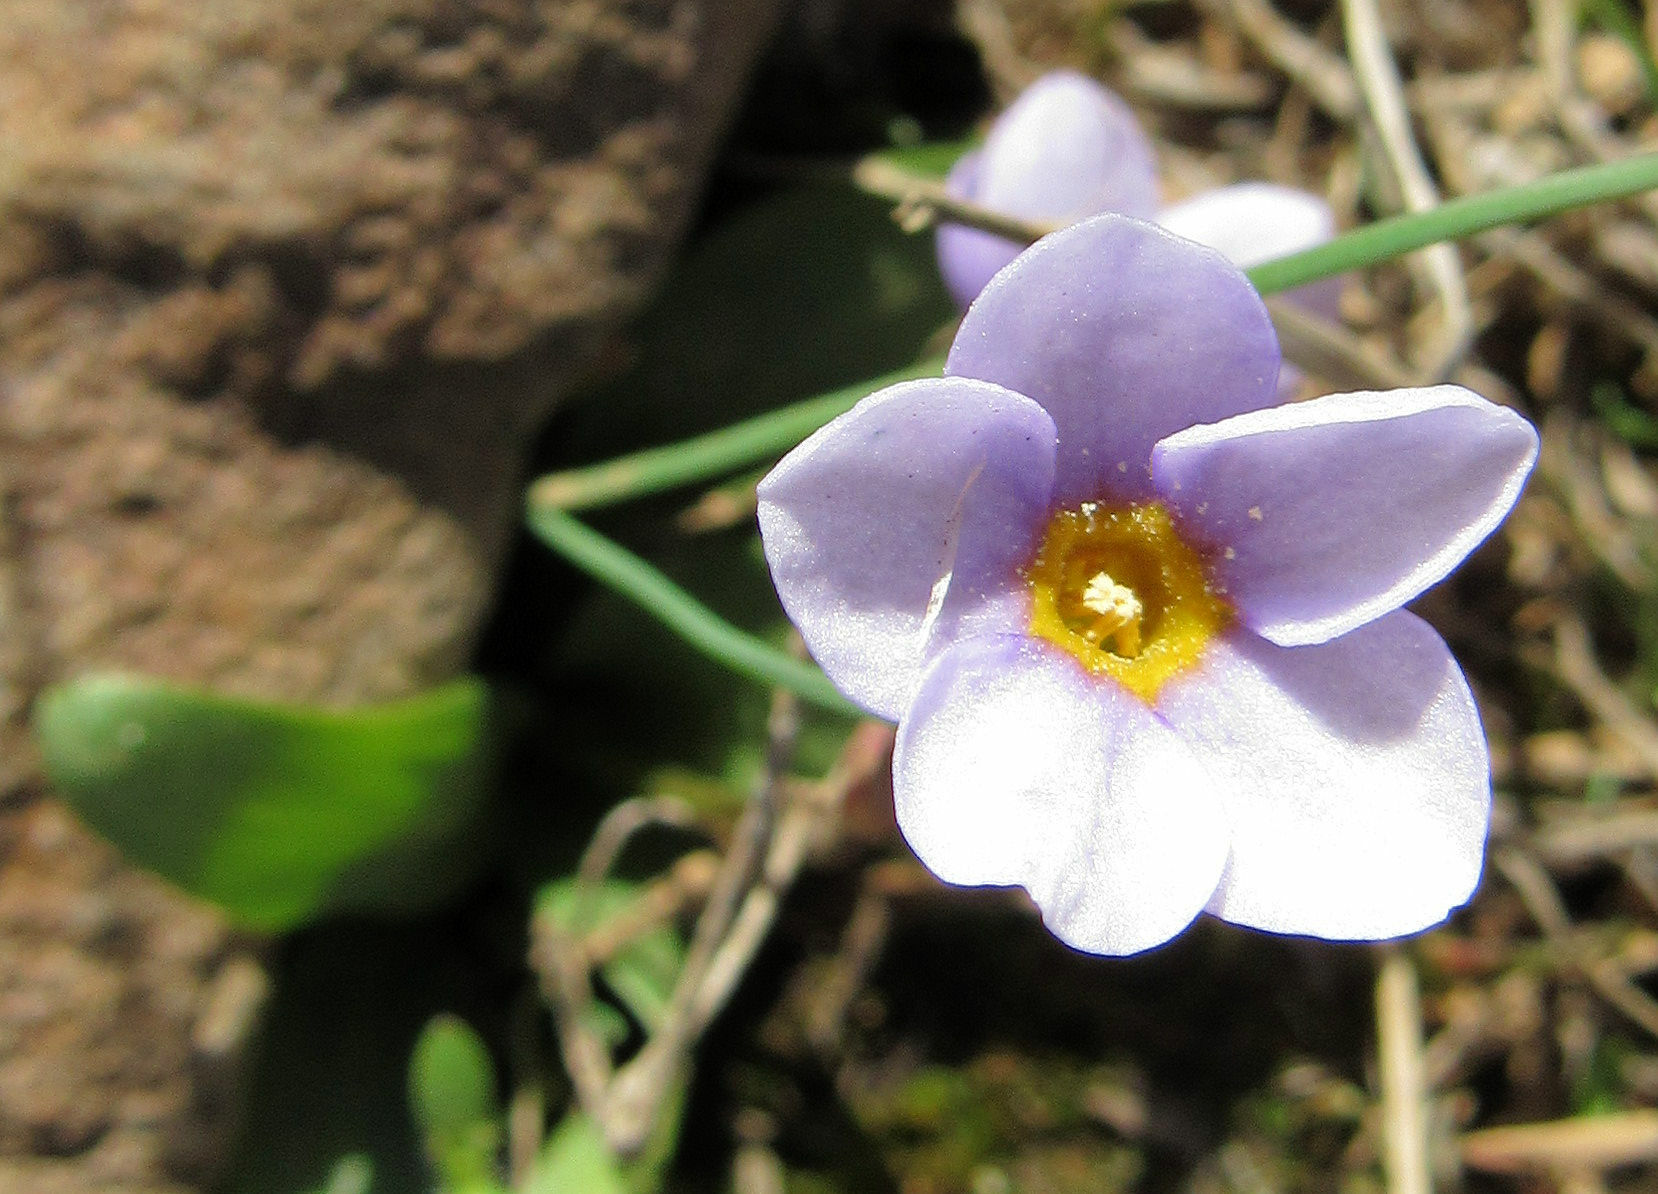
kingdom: Plantae
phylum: Tracheophyta
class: Magnoliopsida
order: Ericales
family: Primulaceae
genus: Primula
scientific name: Primula cusickiana
